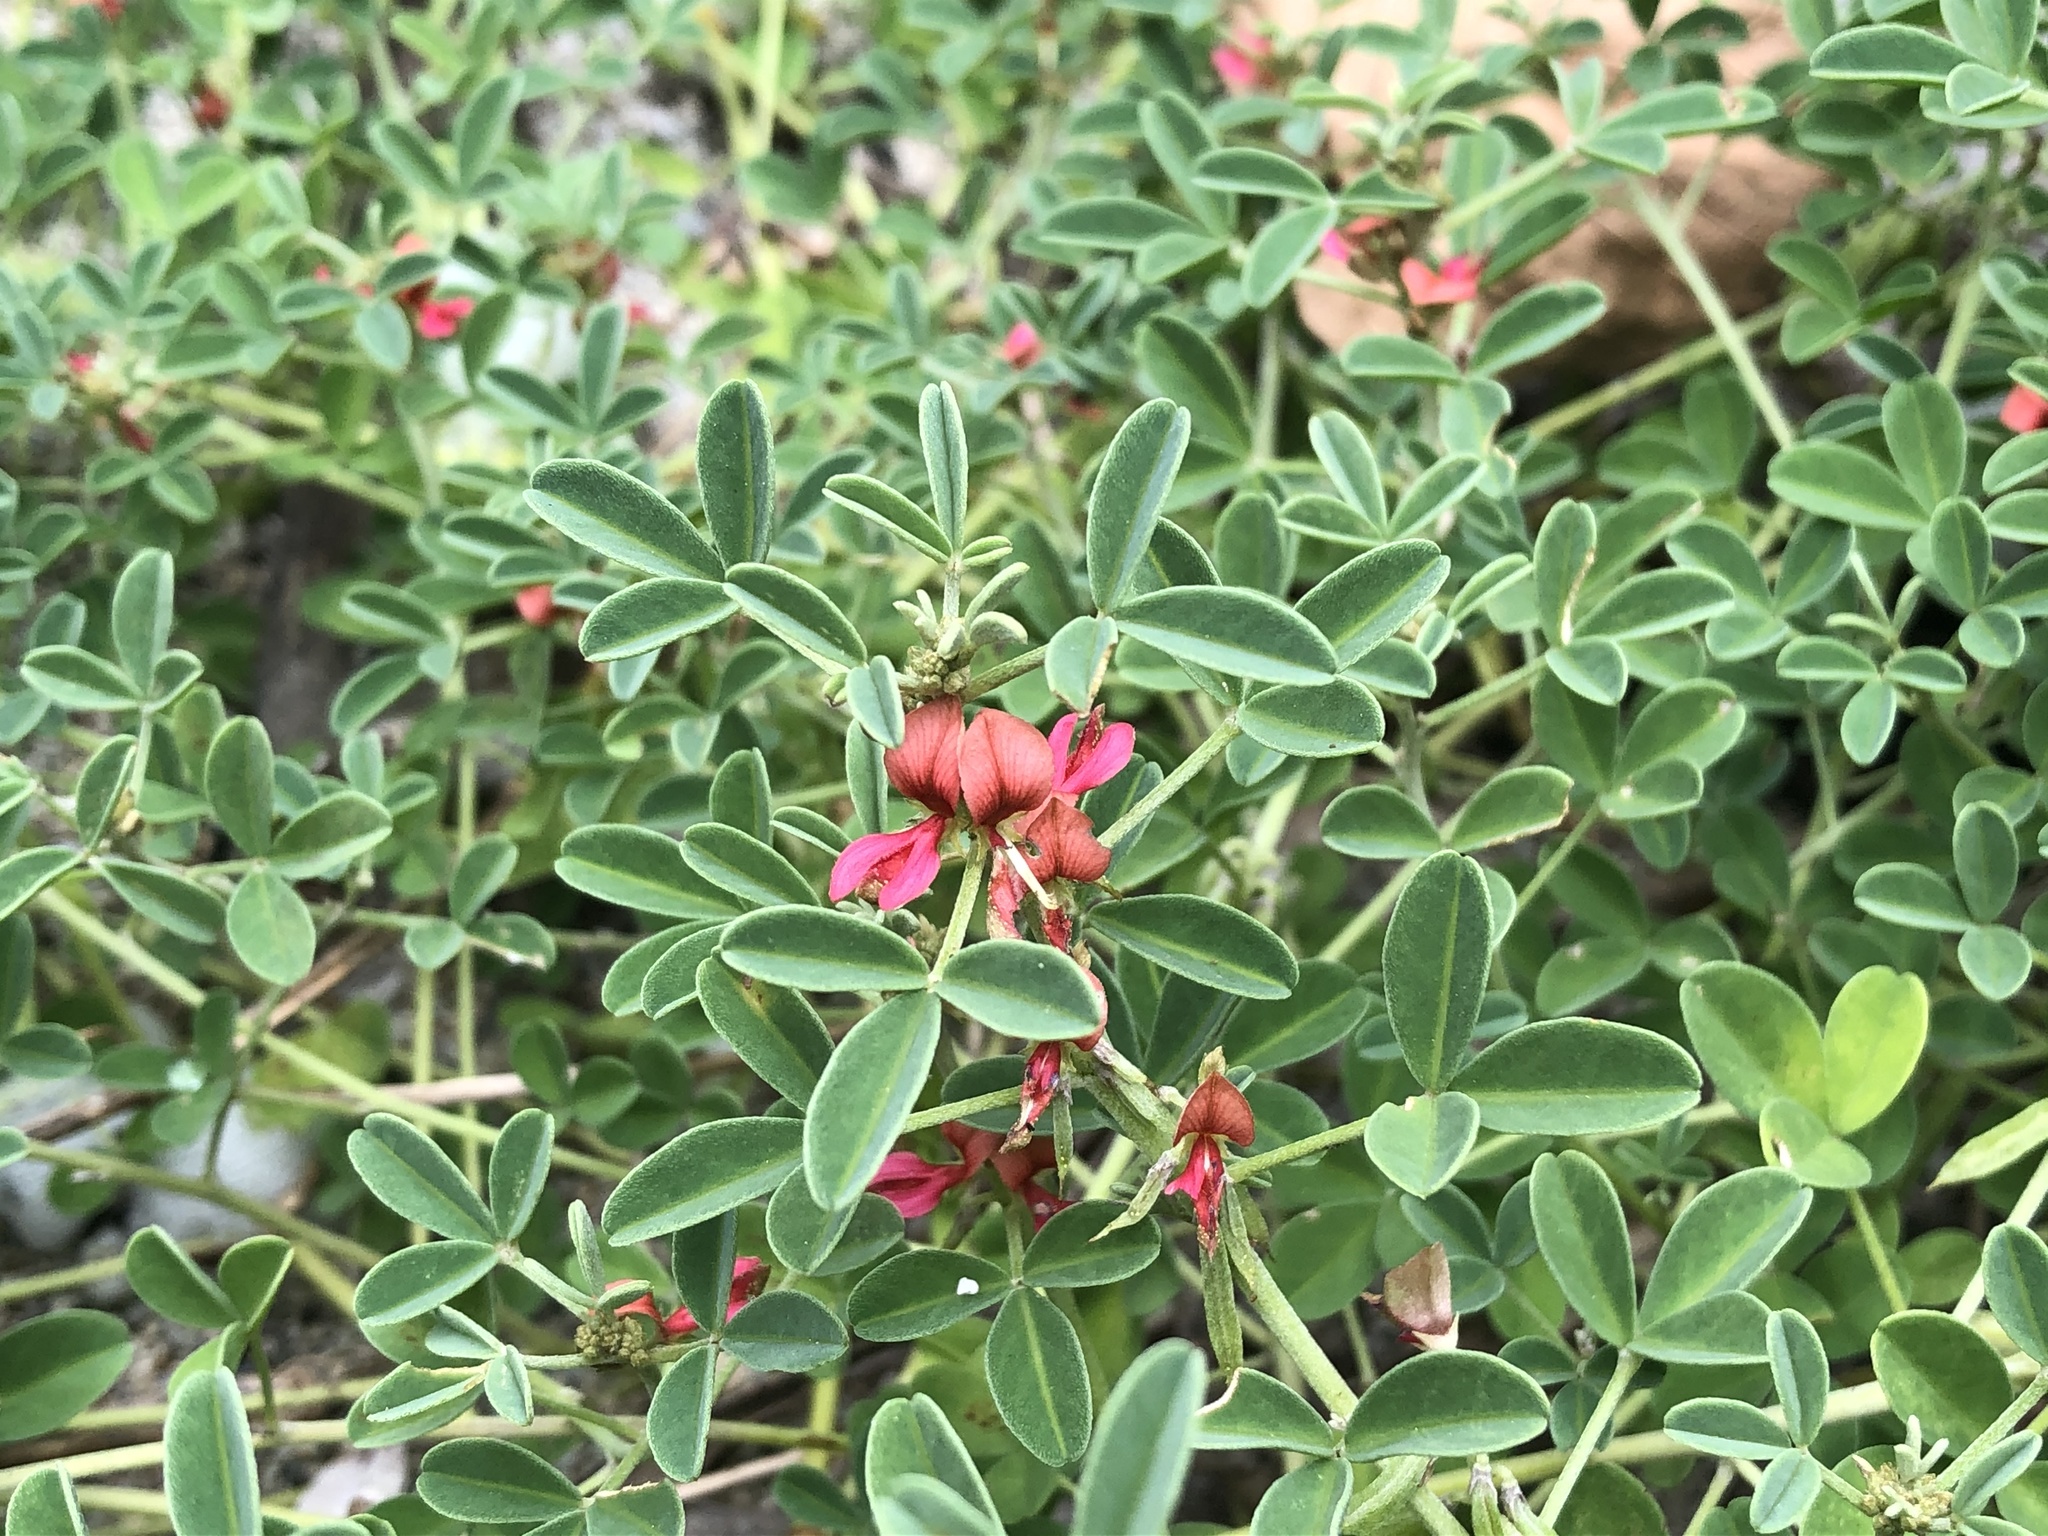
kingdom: Plantae
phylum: Tracheophyta
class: Magnoliopsida
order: Fabales
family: Fabaceae
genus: Indigofera
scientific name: Indigofera trifoliata
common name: Threeleaf indigo
